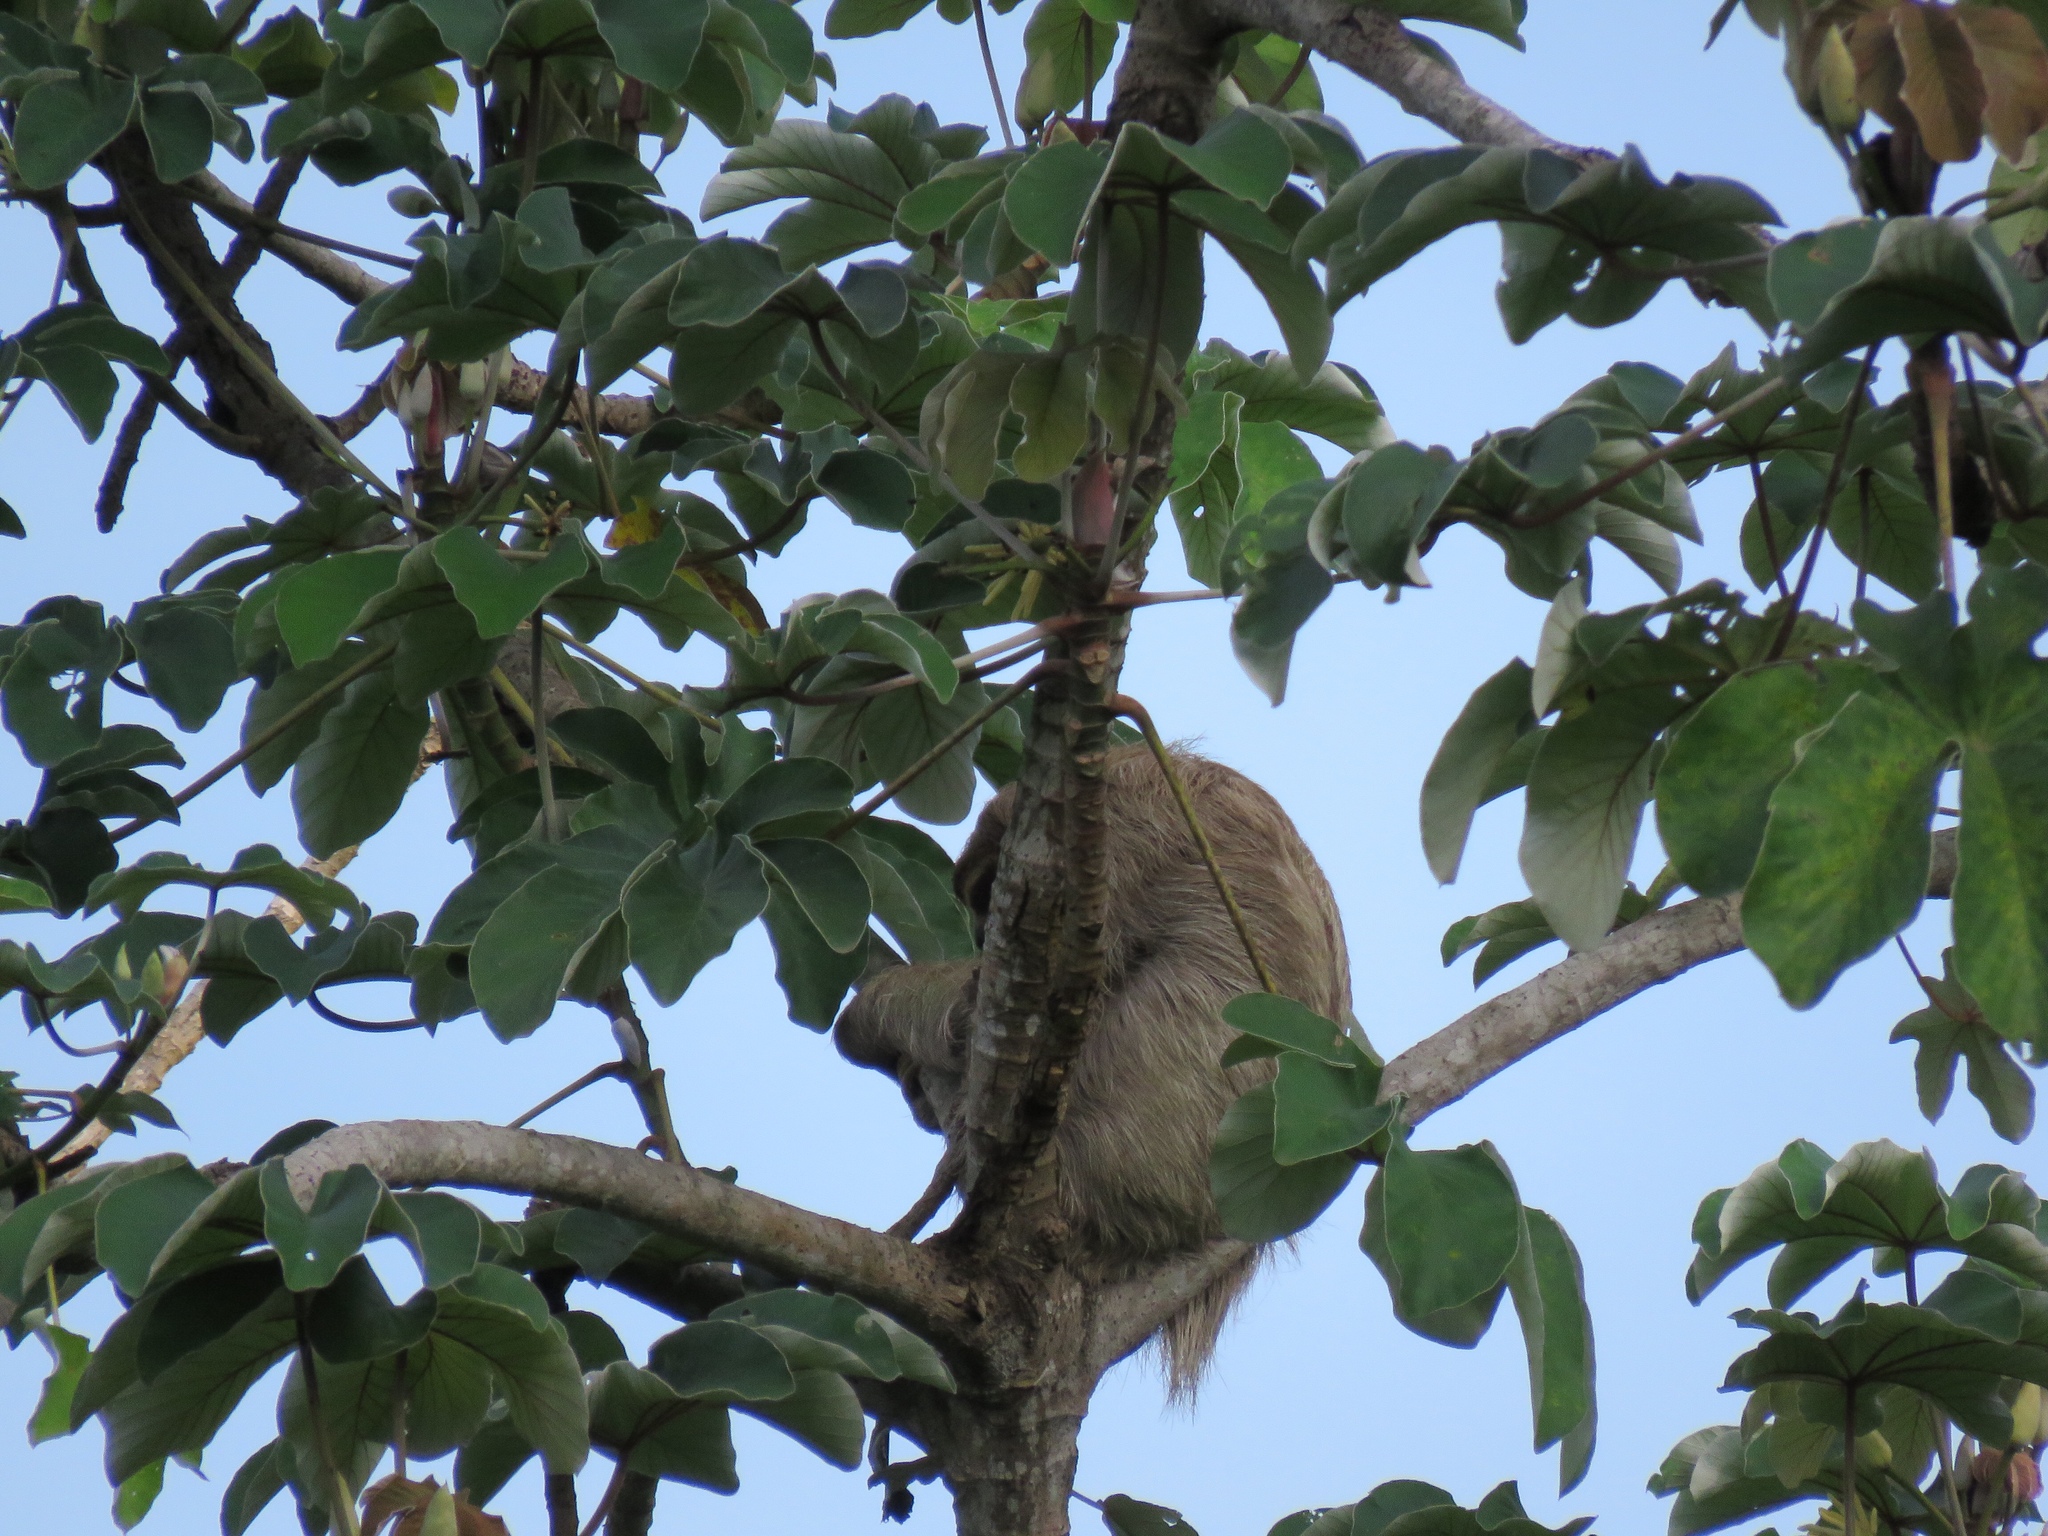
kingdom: Animalia
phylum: Chordata
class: Mammalia
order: Pilosa
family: Bradypodidae
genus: Bradypus
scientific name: Bradypus variegatus
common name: Brown-throated three-toed sloth
